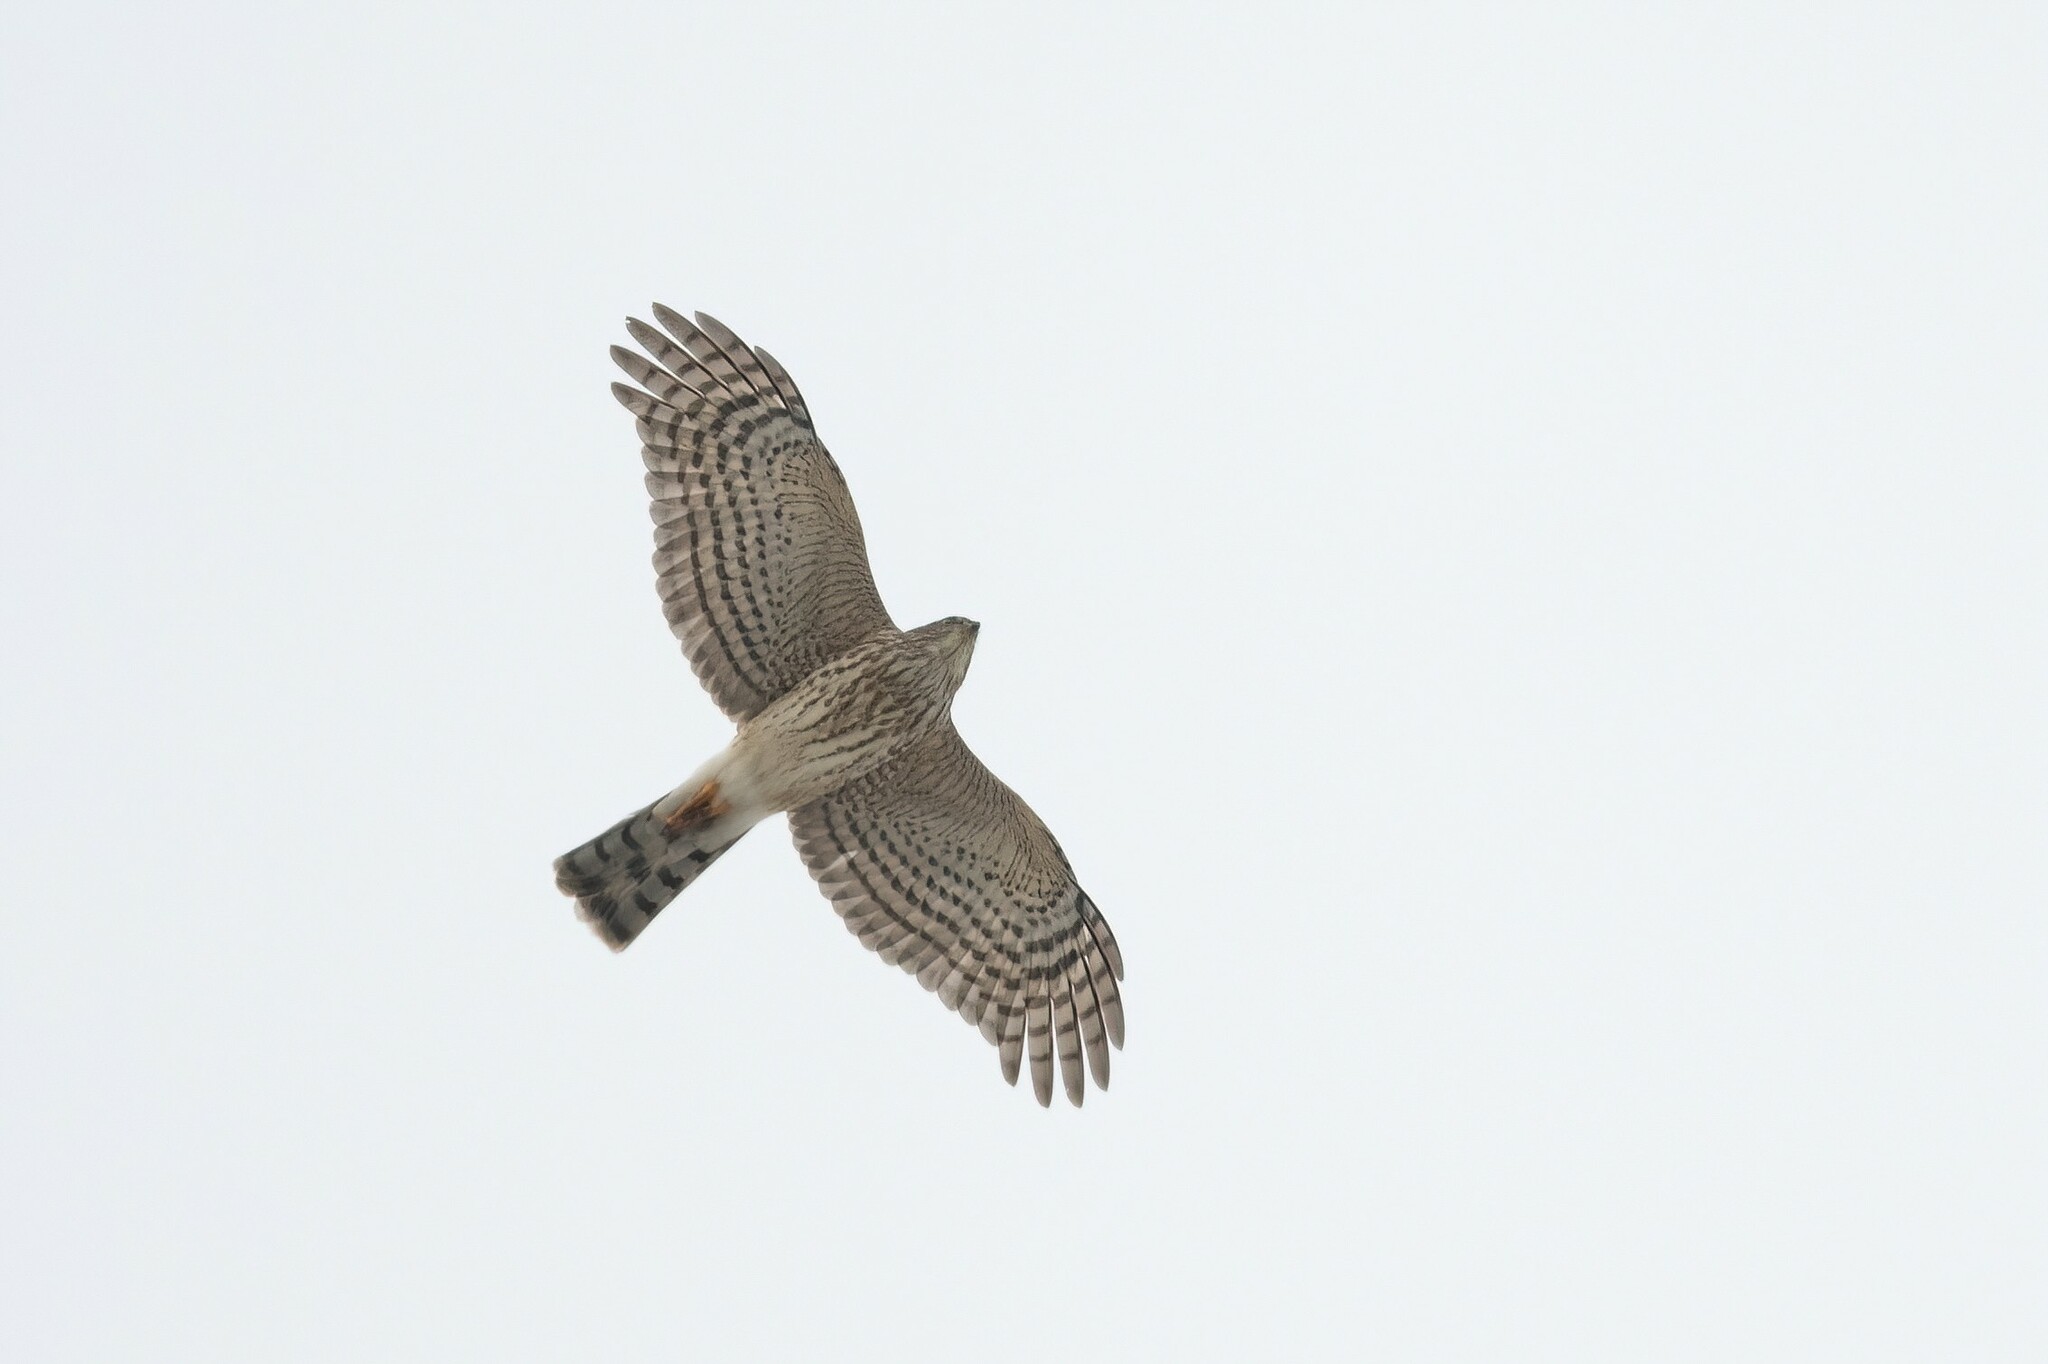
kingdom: Animalia
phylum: Chordata
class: Aves
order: Accipitriformes
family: Accipitridae
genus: Accipiter
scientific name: Accipiter striatus
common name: Sharp-shinned hawk
